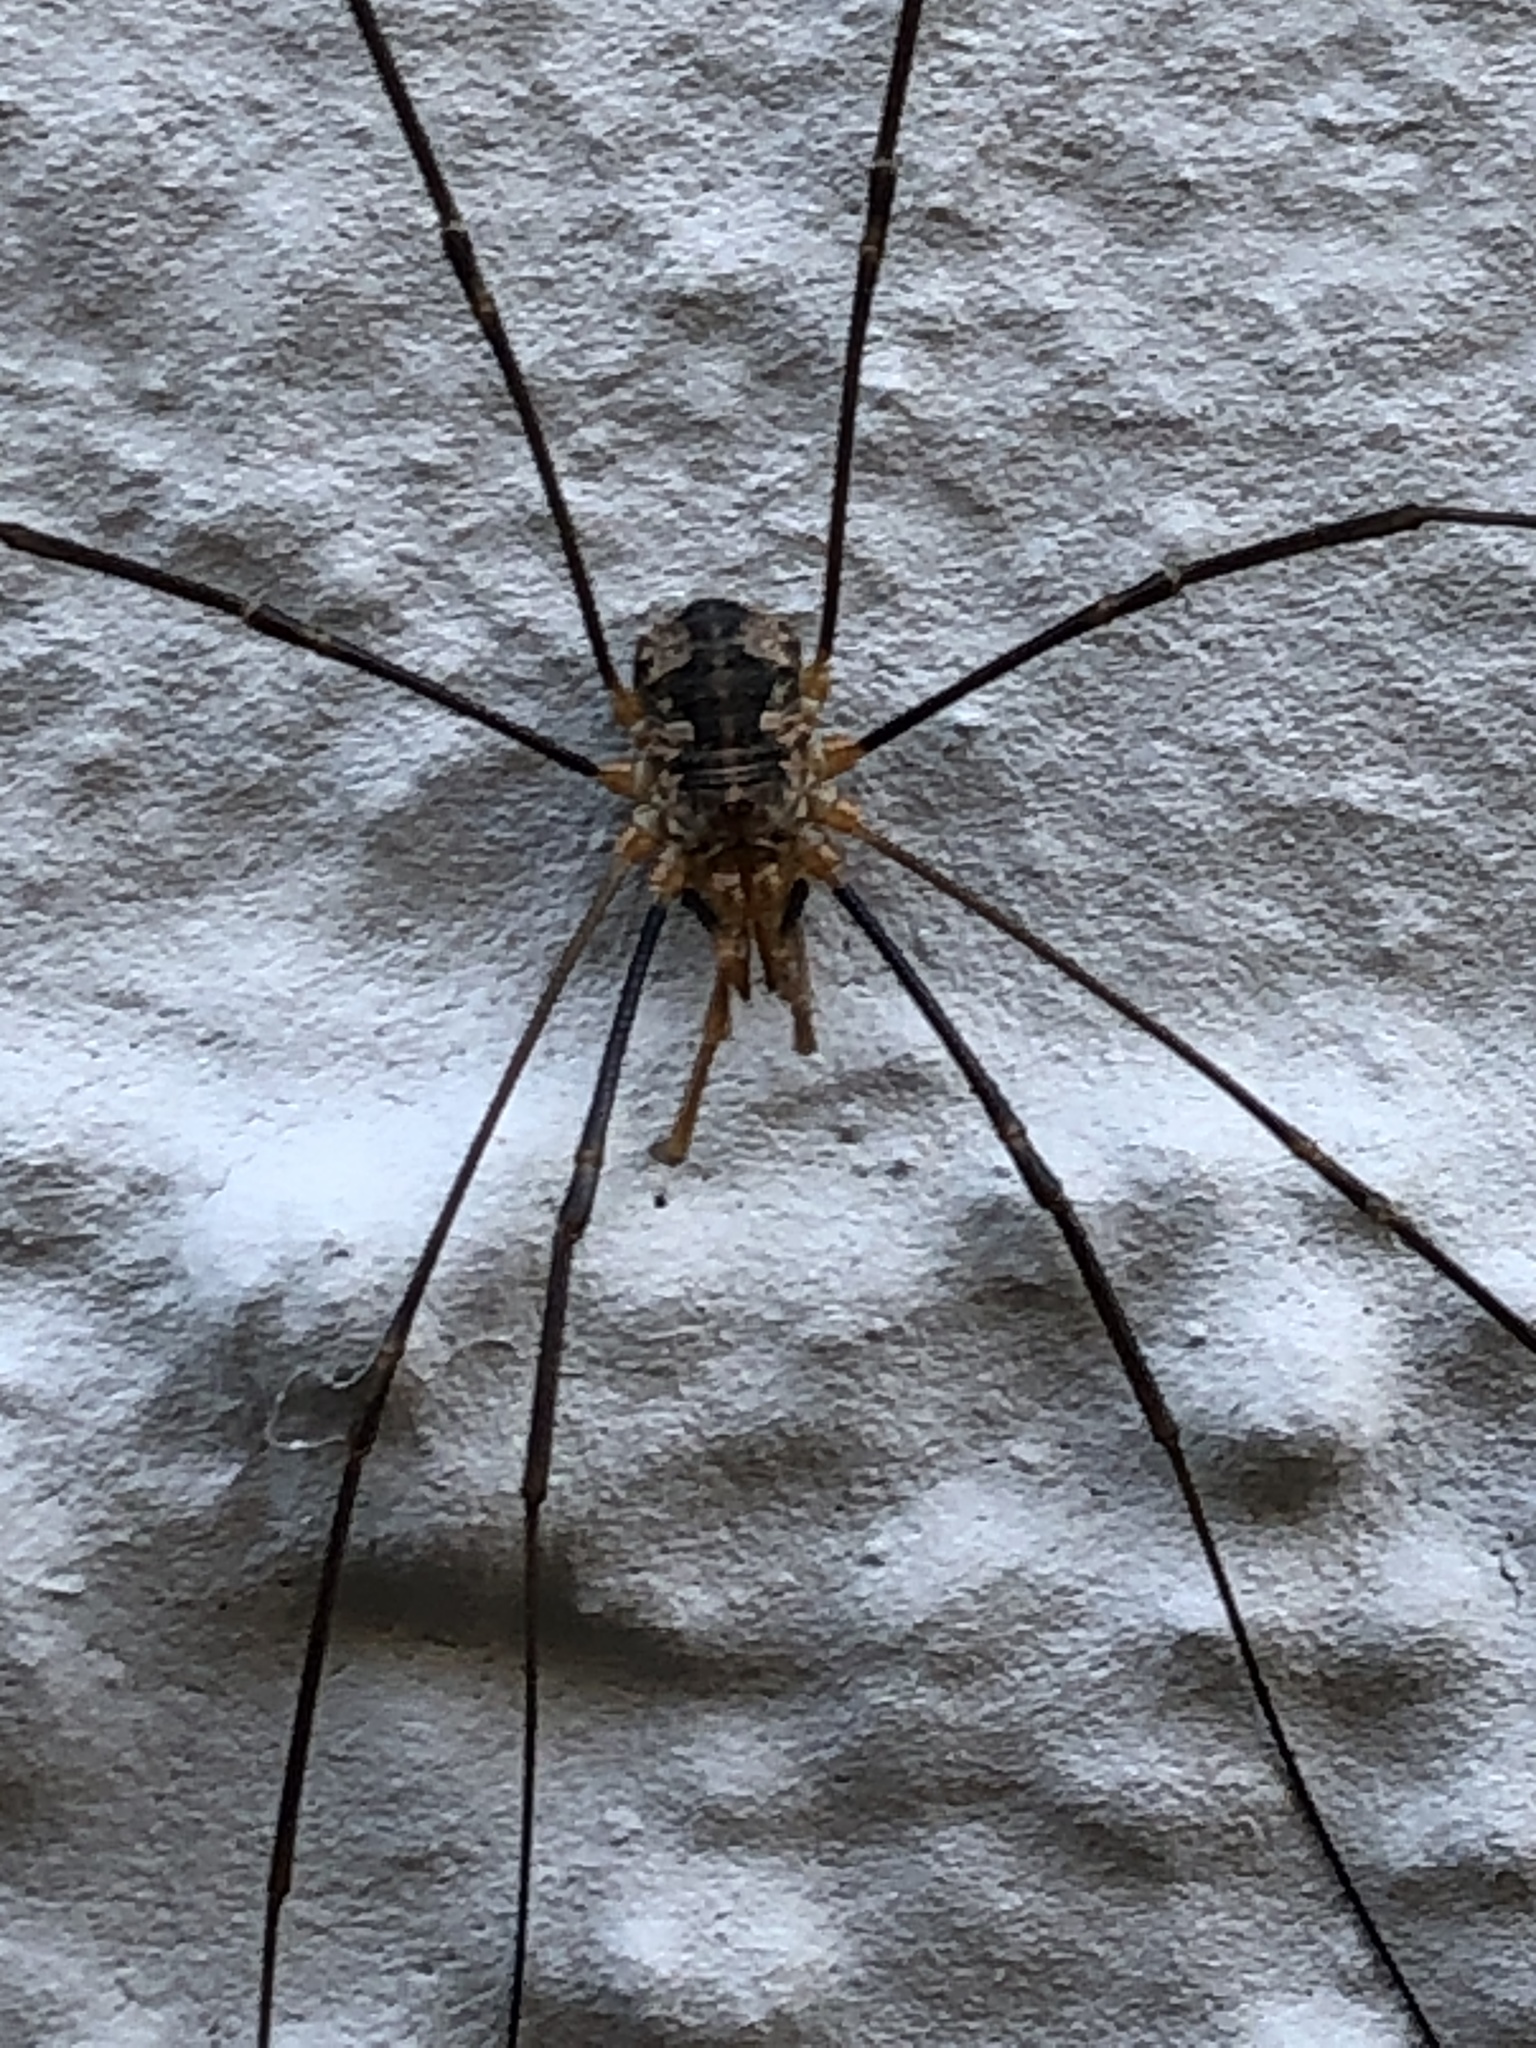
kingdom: Animalia
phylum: Arthropoda
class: Arachnida
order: Opiliones
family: Phalangiidae
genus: Phalangium
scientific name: Phalangium opilio
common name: Daddy longleg
